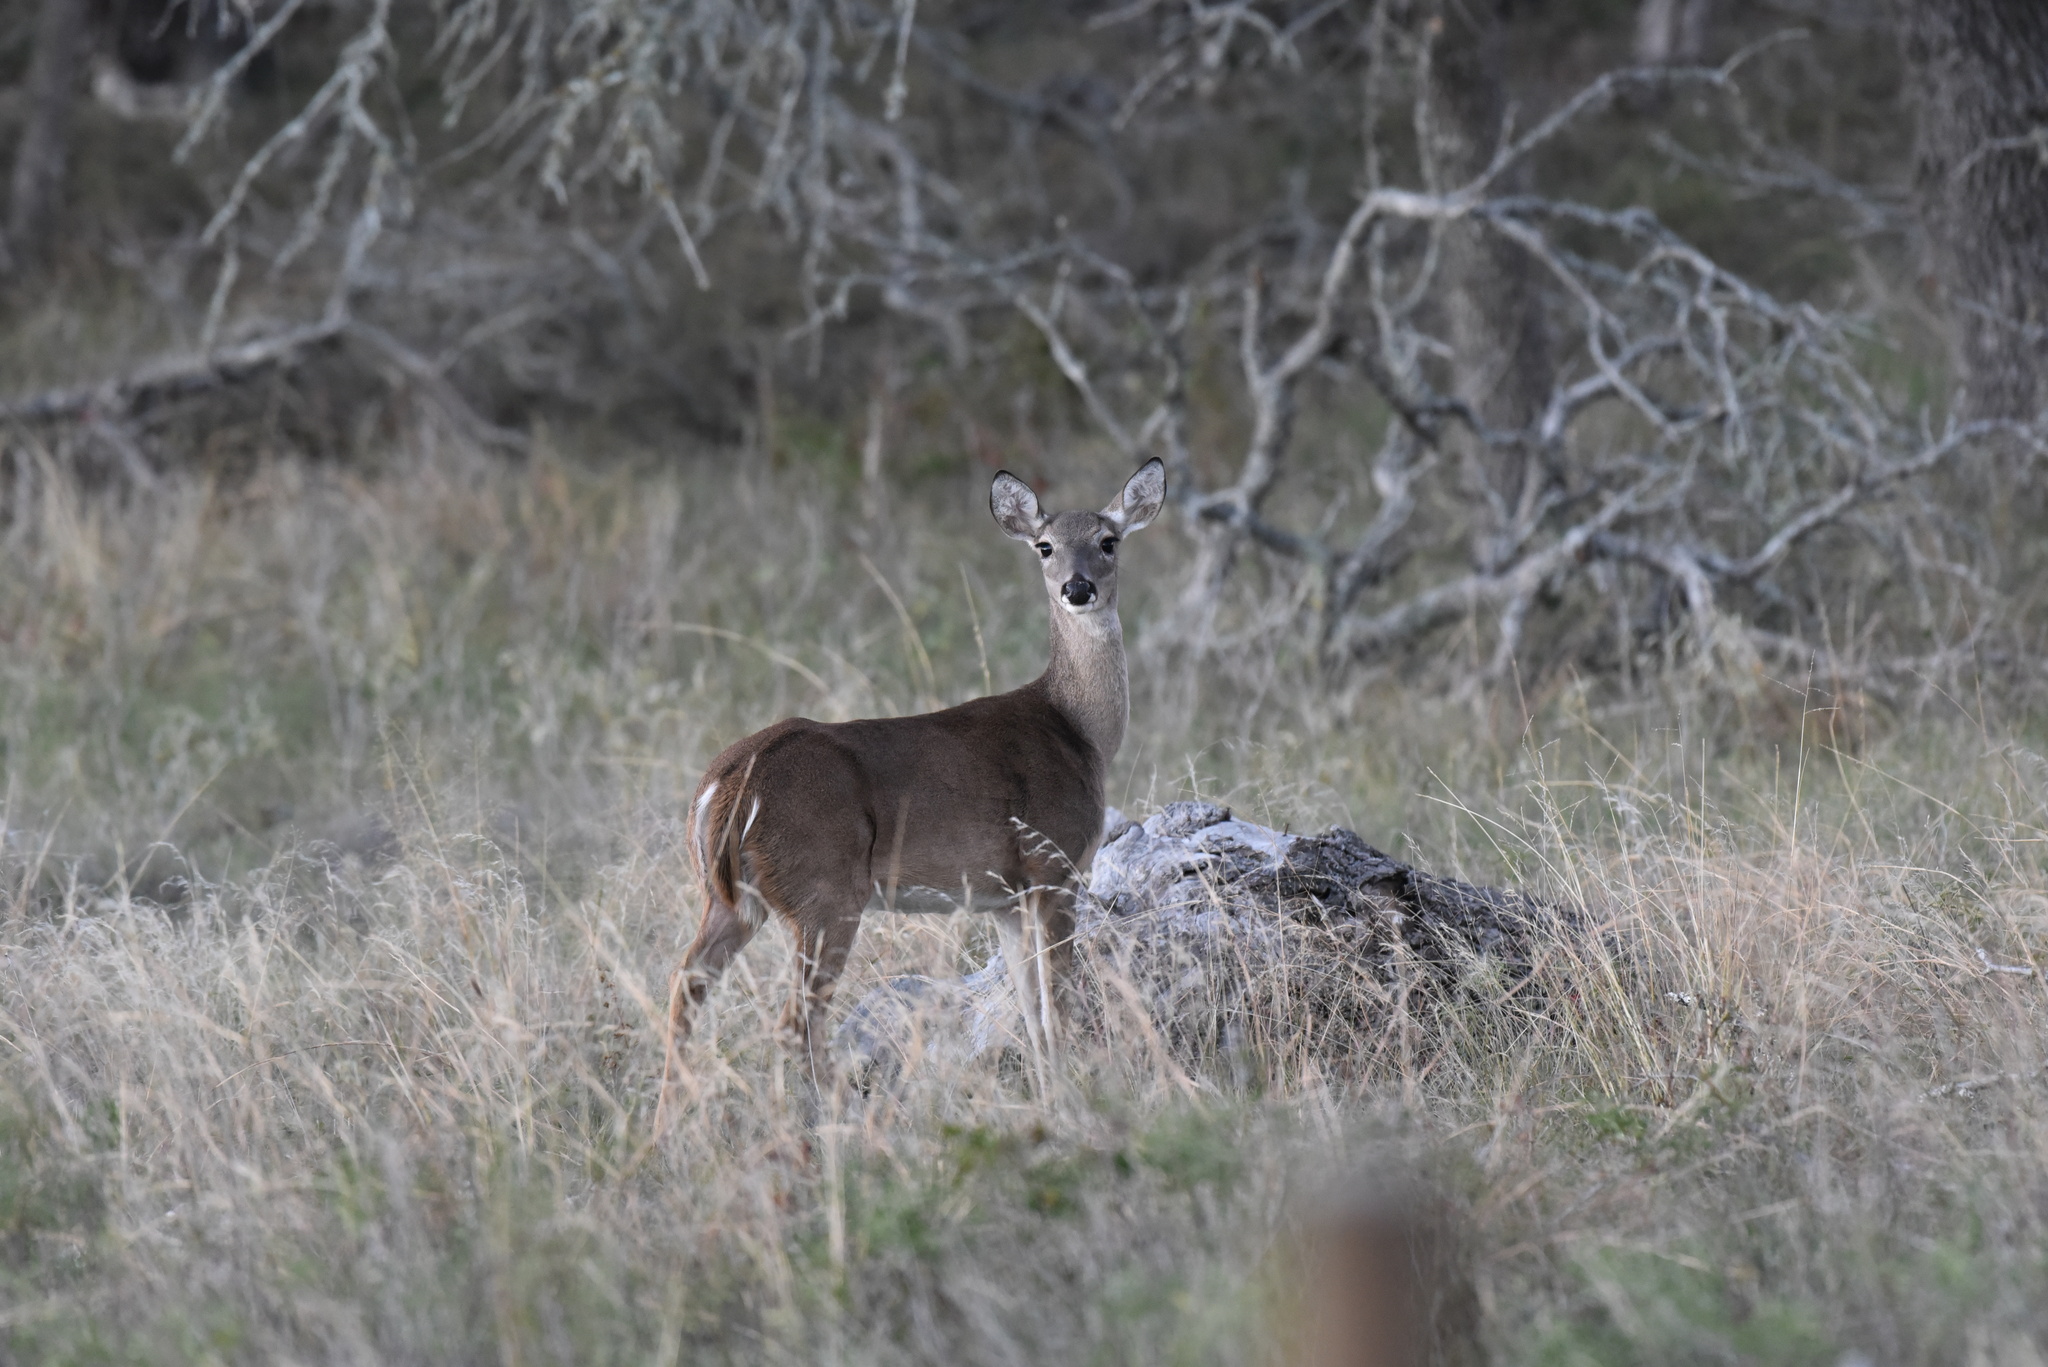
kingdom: Animalia
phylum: Chordata
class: Mammalia
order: Artiodactyla
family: Cervidae
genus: Odocoileus
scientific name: Odocoileus virginianus
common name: White-tailed deer
